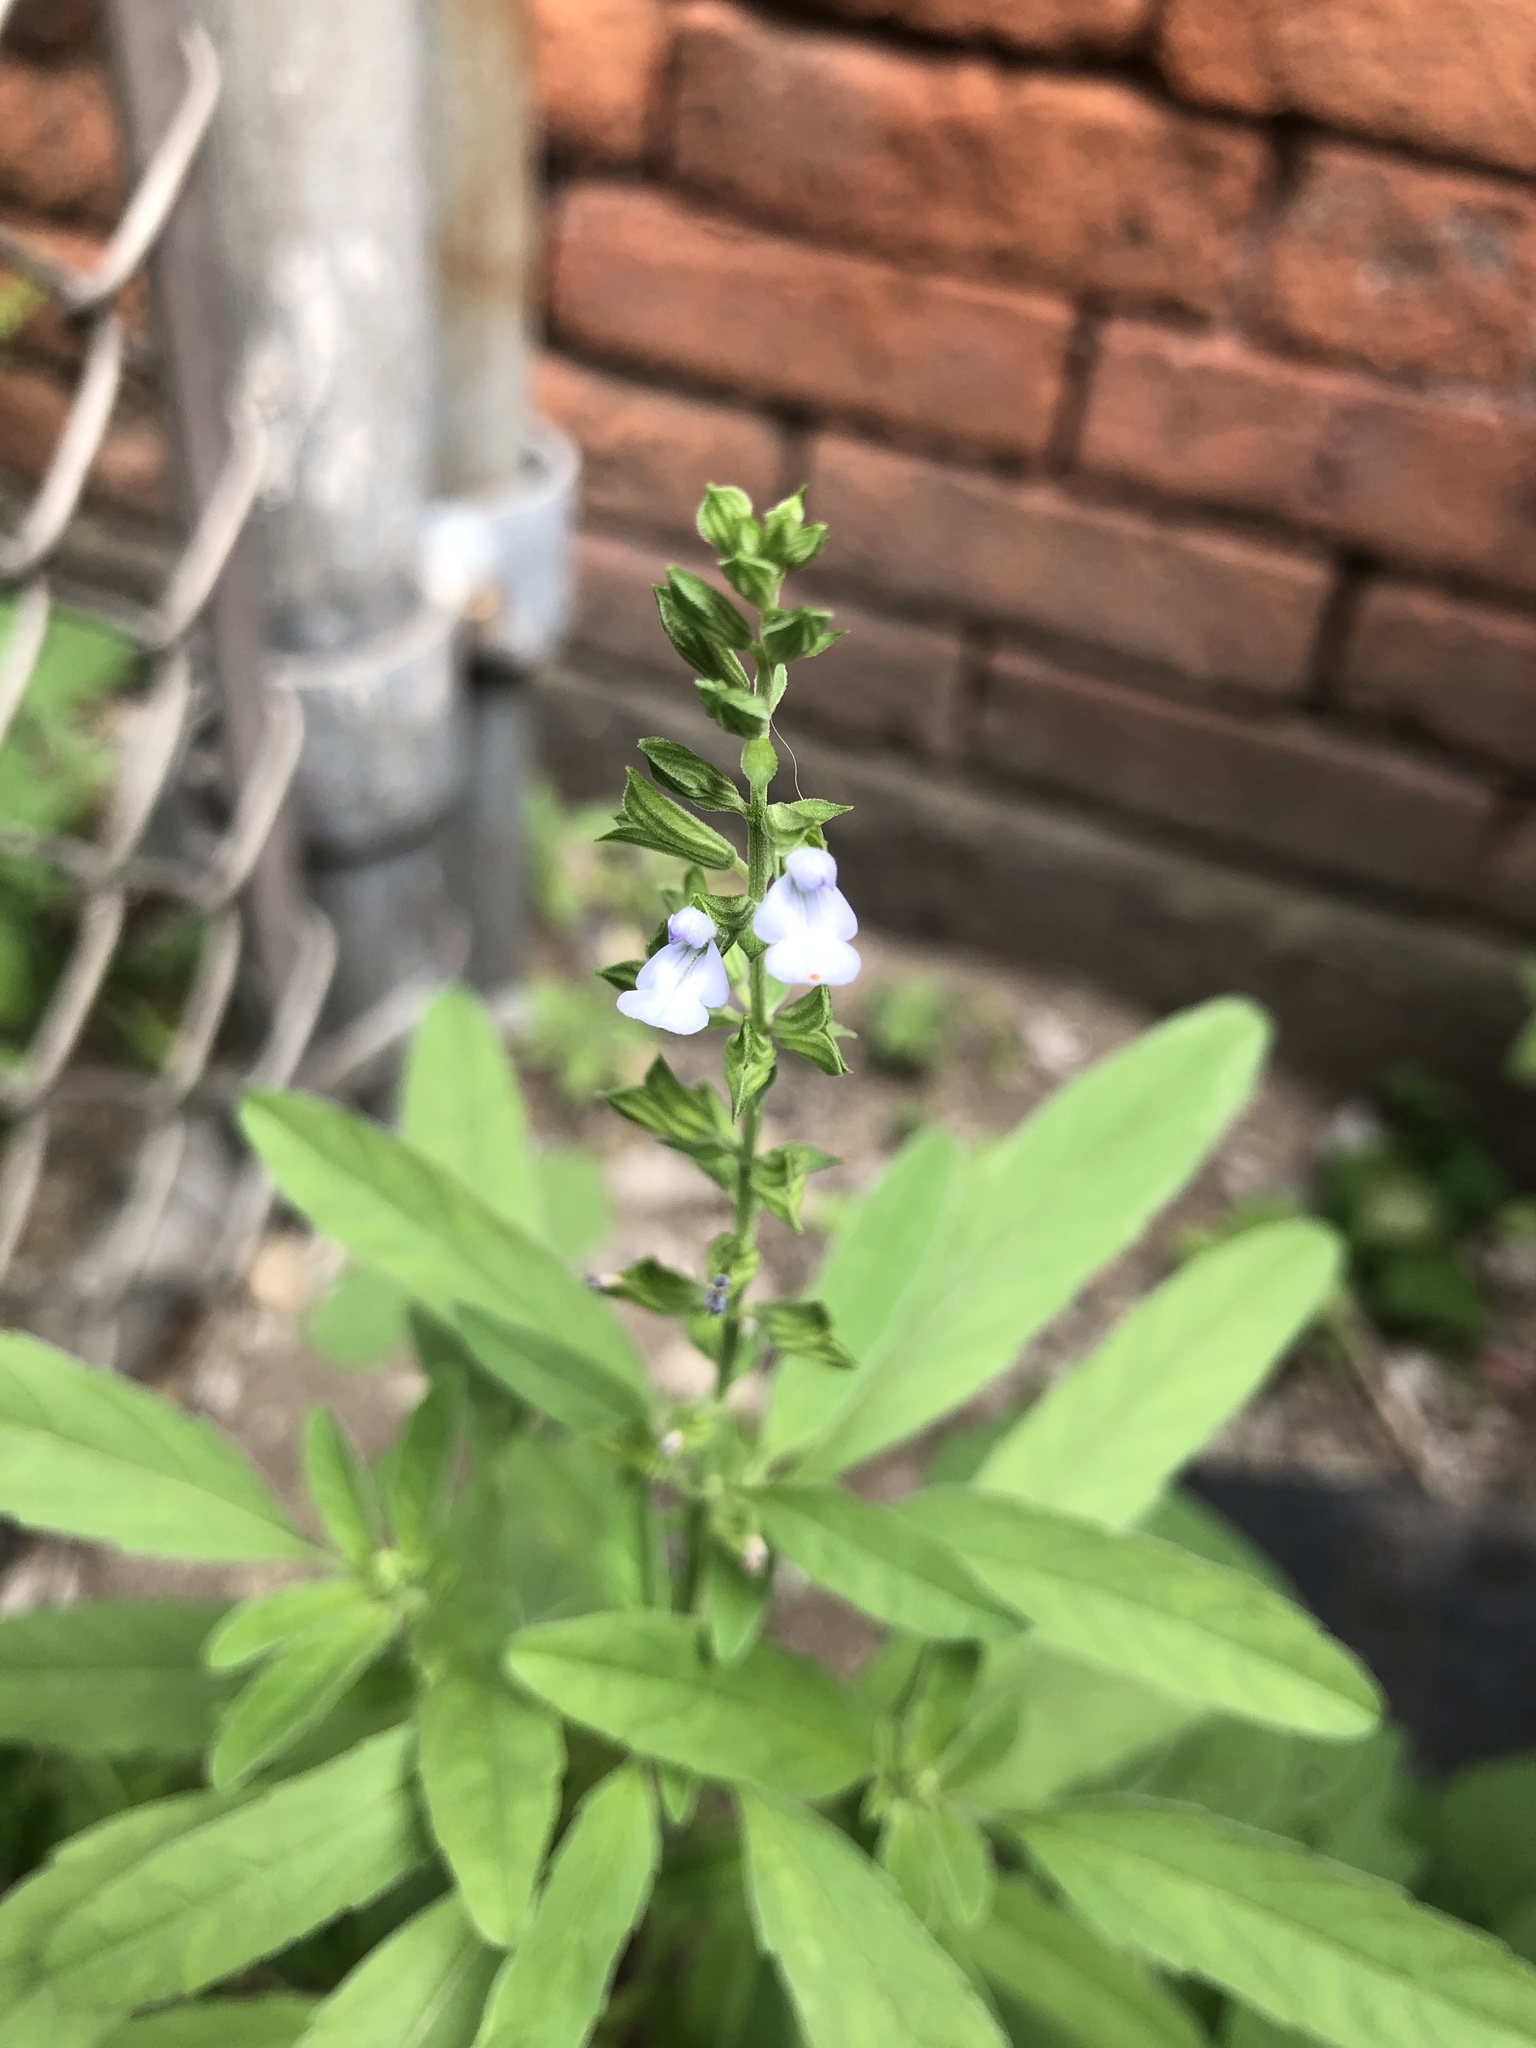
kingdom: Plantae
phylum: Tracheophyta
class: Magnoliopsida
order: Lamiales
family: Lamiaceae
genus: Salvia
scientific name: Salvia reflexa
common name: Mintweed
